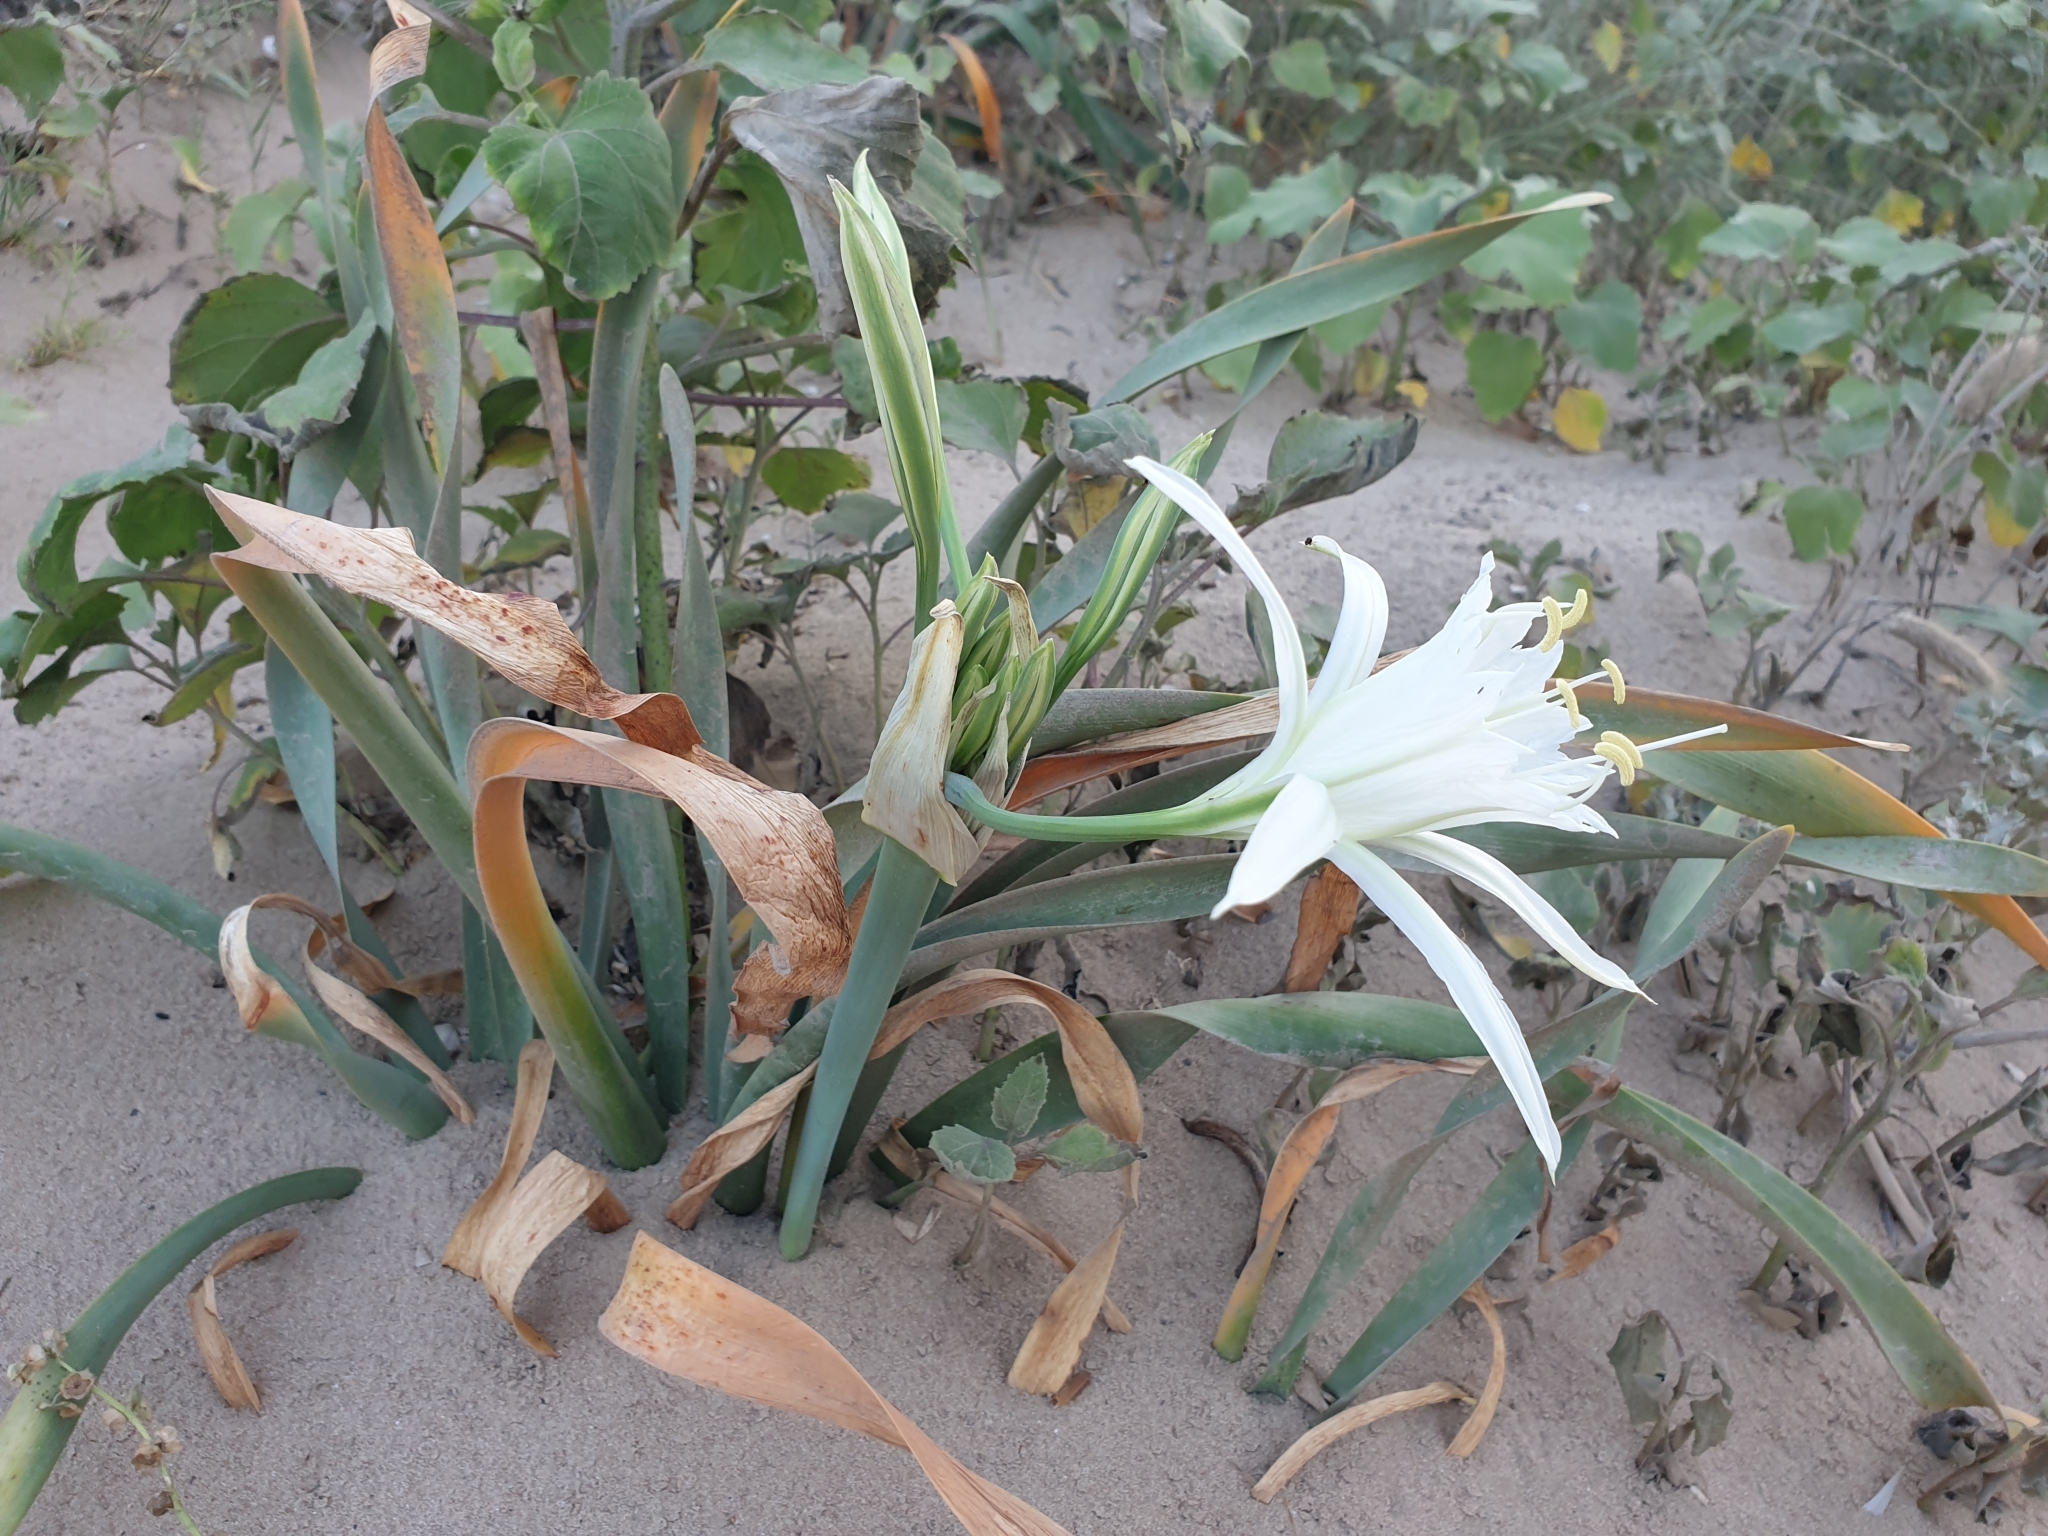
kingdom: Plantae
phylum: Tracheophyta
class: Liliopsida
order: Asparagales
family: Amaryllidaceae
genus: Pancratium
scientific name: Pancratium maritimum
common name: Sea-daffodil
